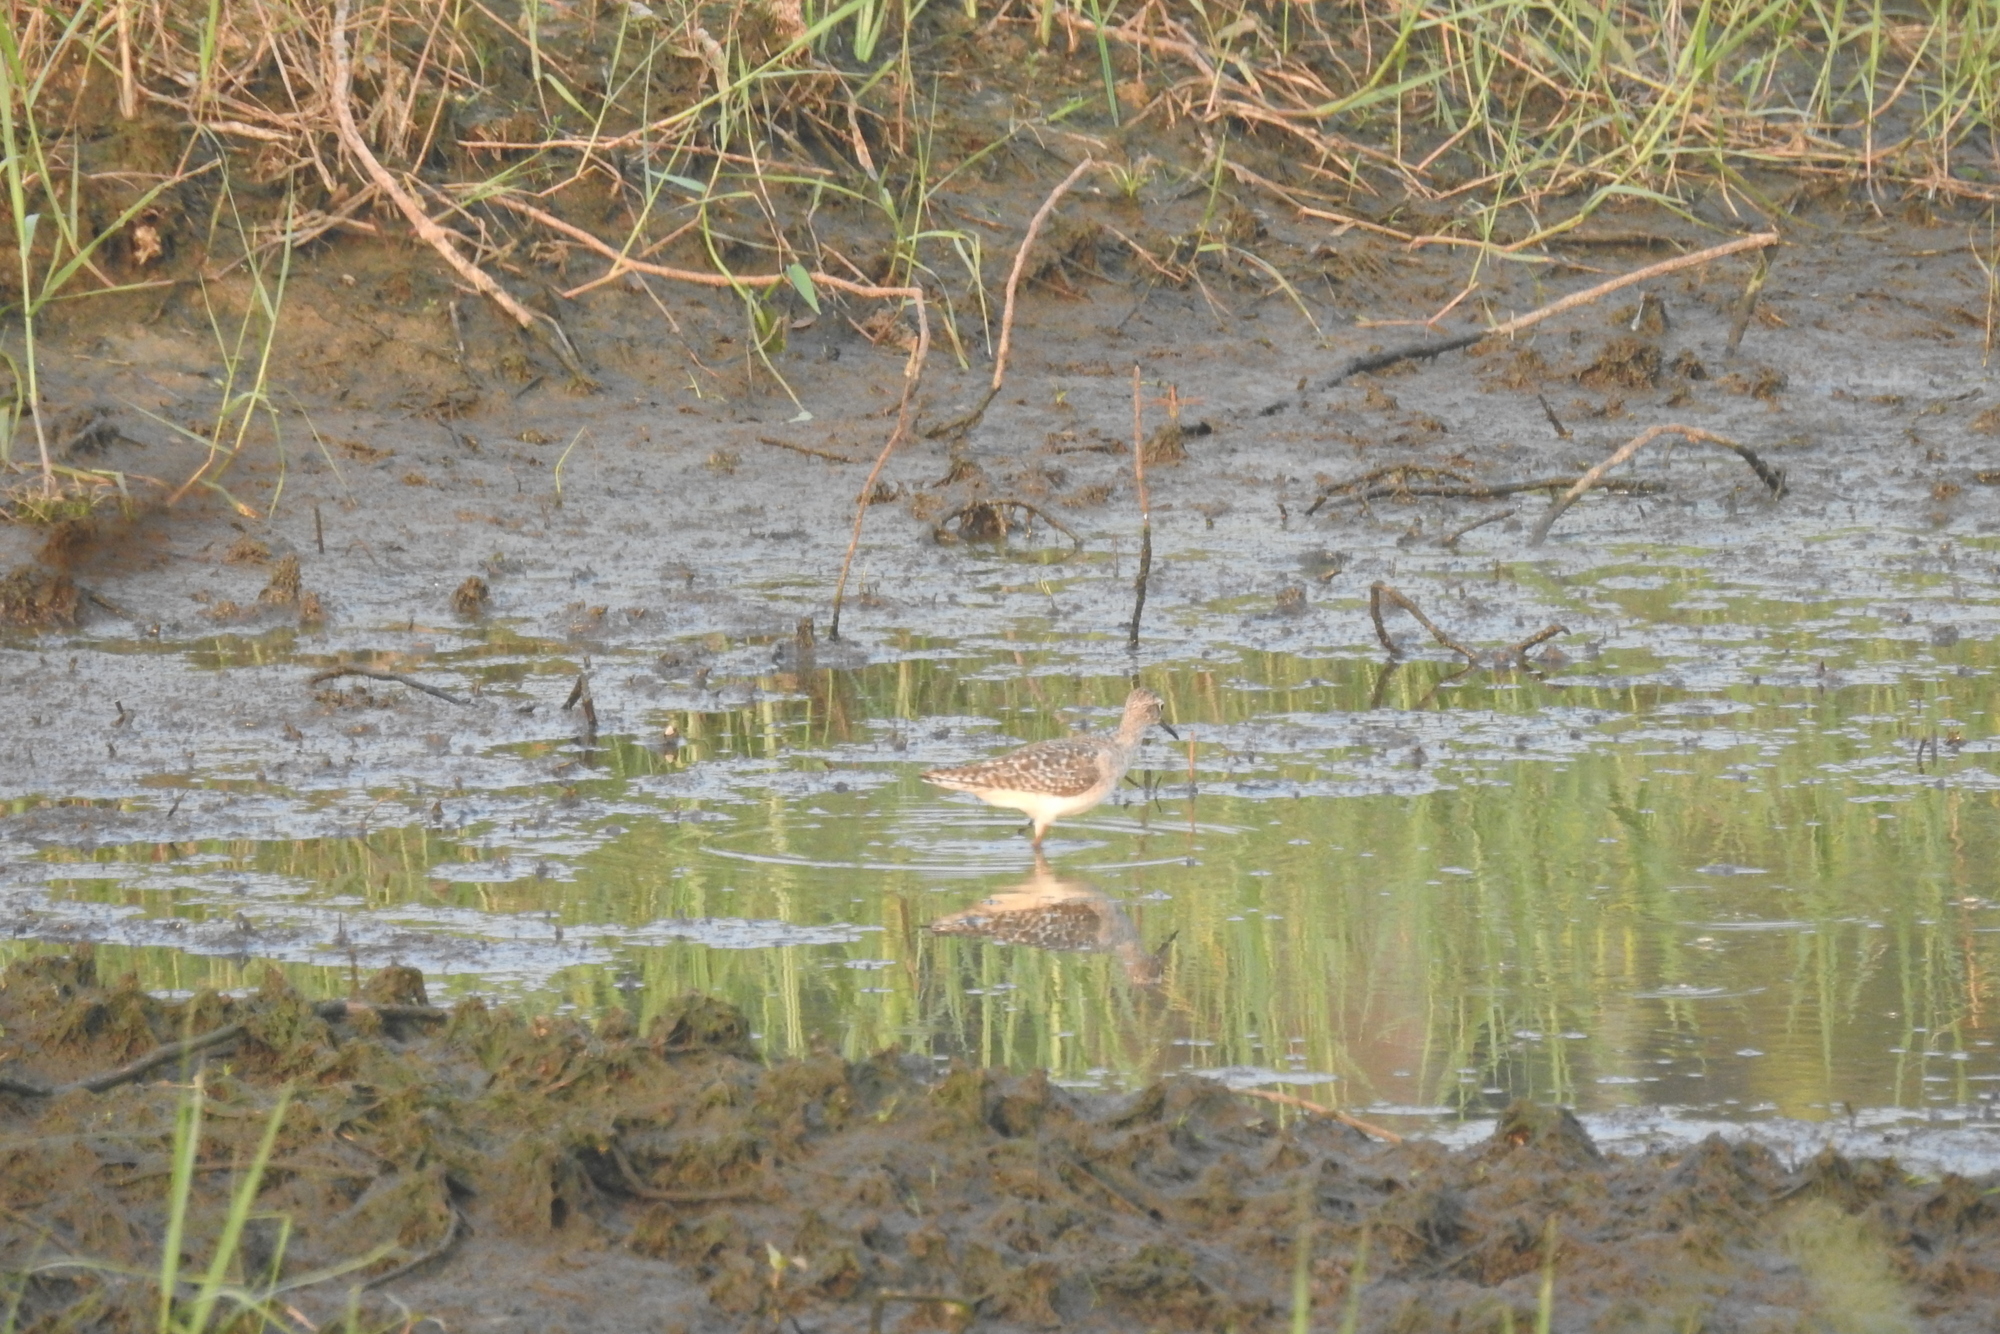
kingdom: Animalia
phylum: Chordata
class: Aves
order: Charadriiformes
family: Scolopacidae
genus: Tringa
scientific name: Tringa glareola
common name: Wood sandpiper
